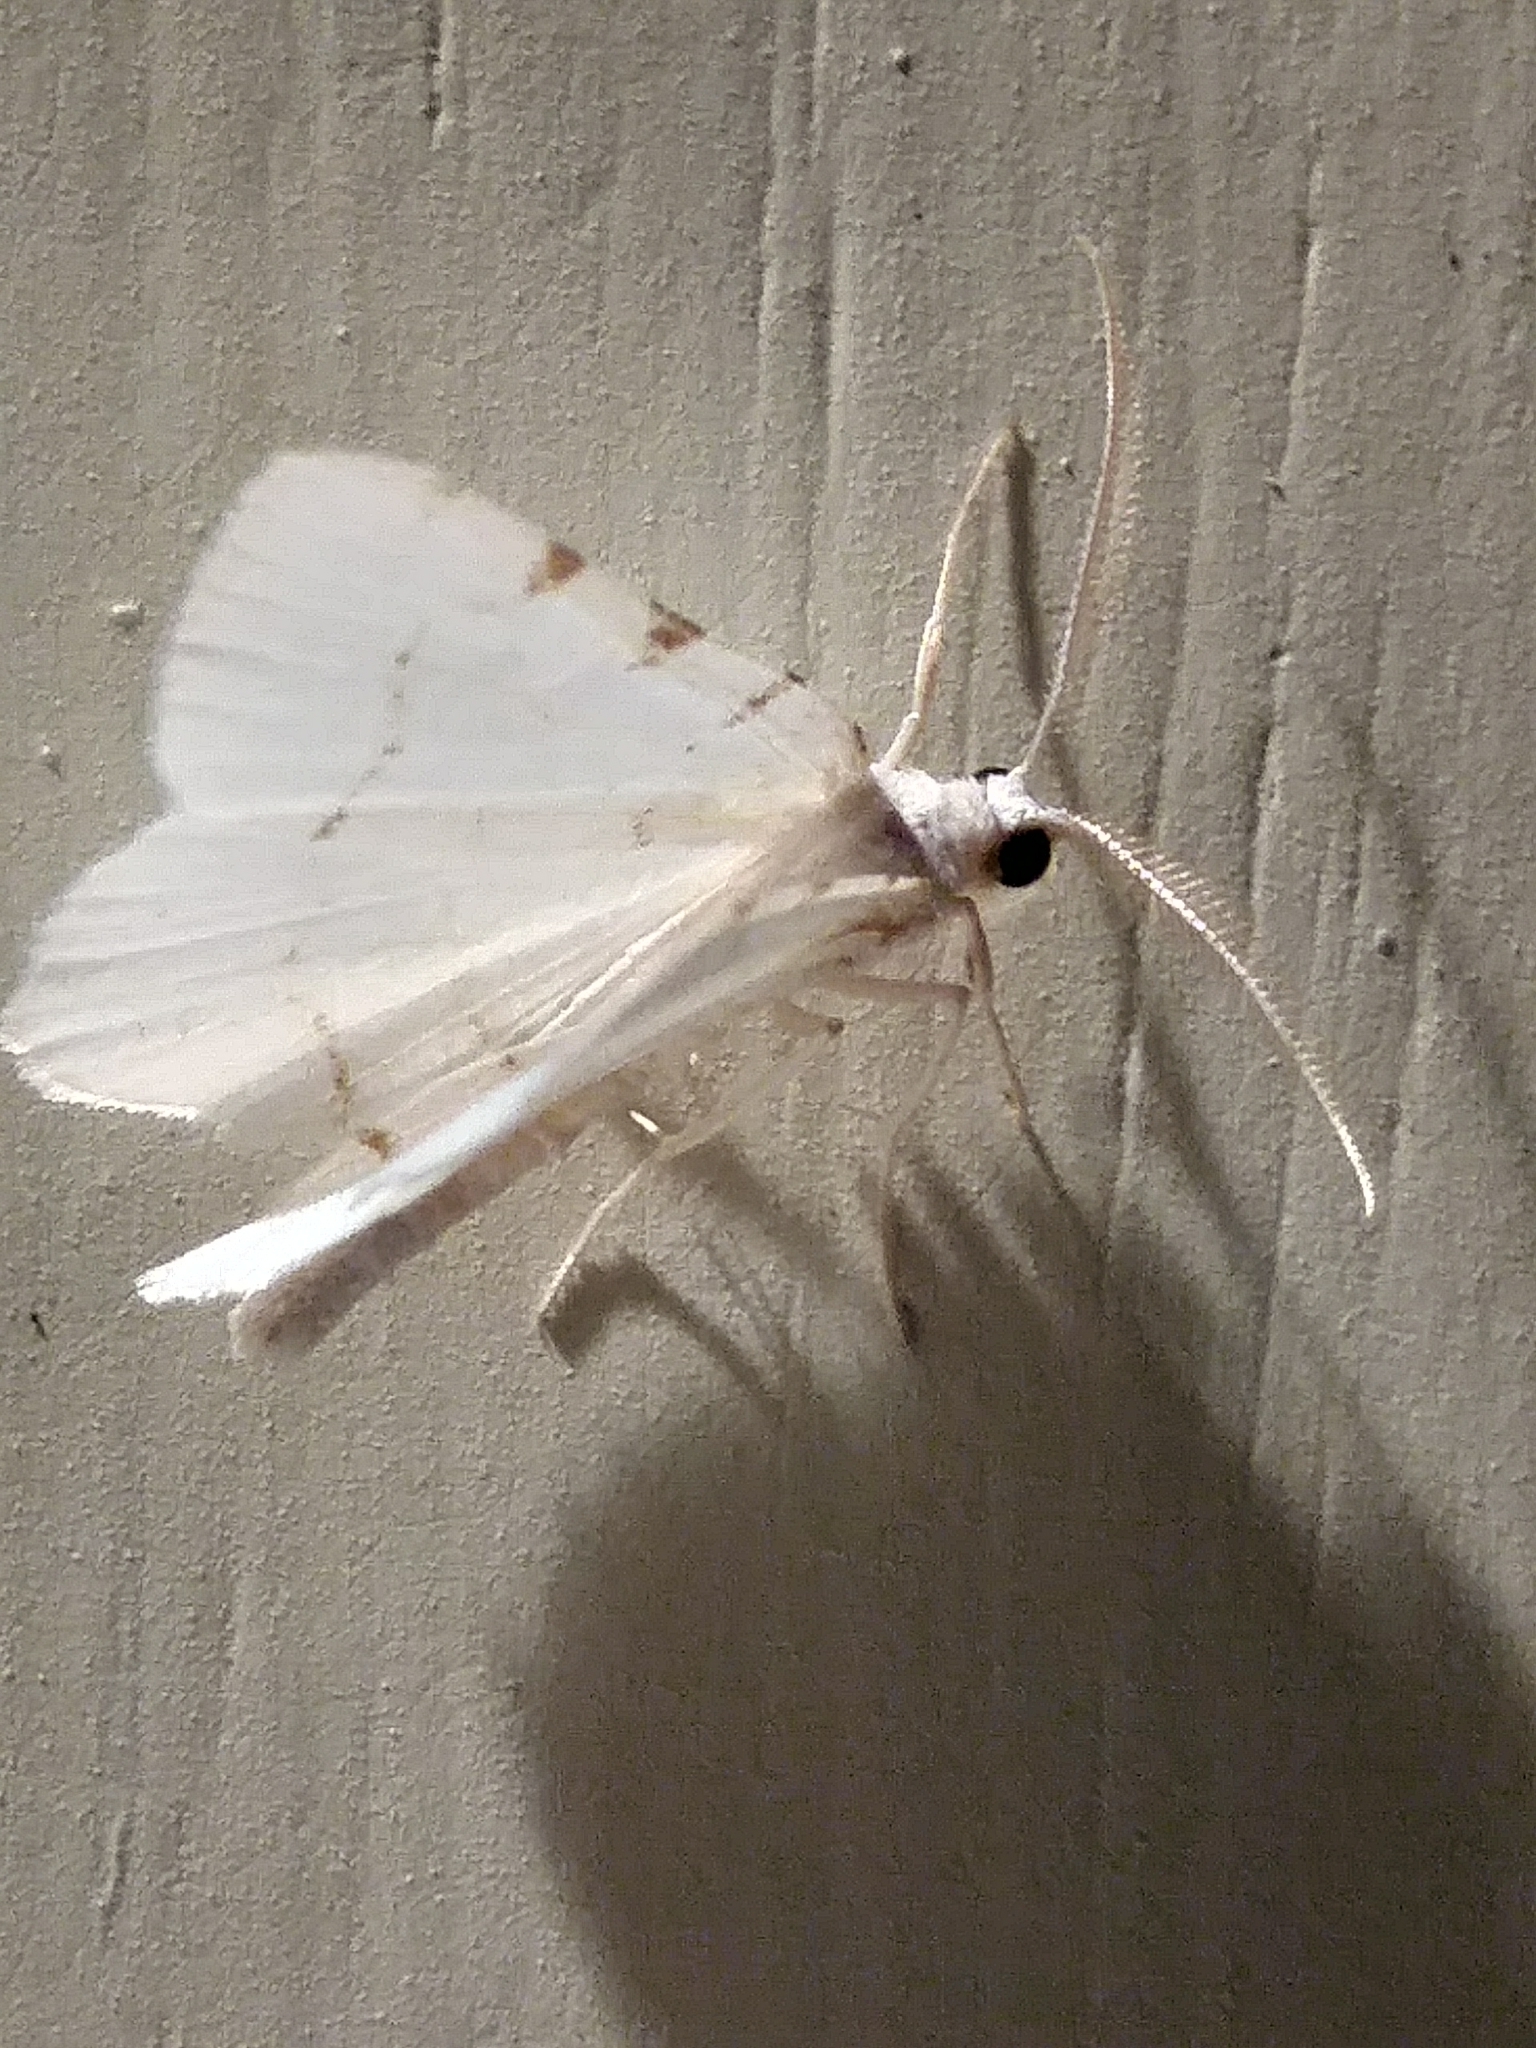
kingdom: Animalia
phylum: Arthropoda
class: Insecta
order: Lepidoptera
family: Geometridae
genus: Macaria
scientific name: Macaria pustularia
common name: Lesser maple spanworm moth
